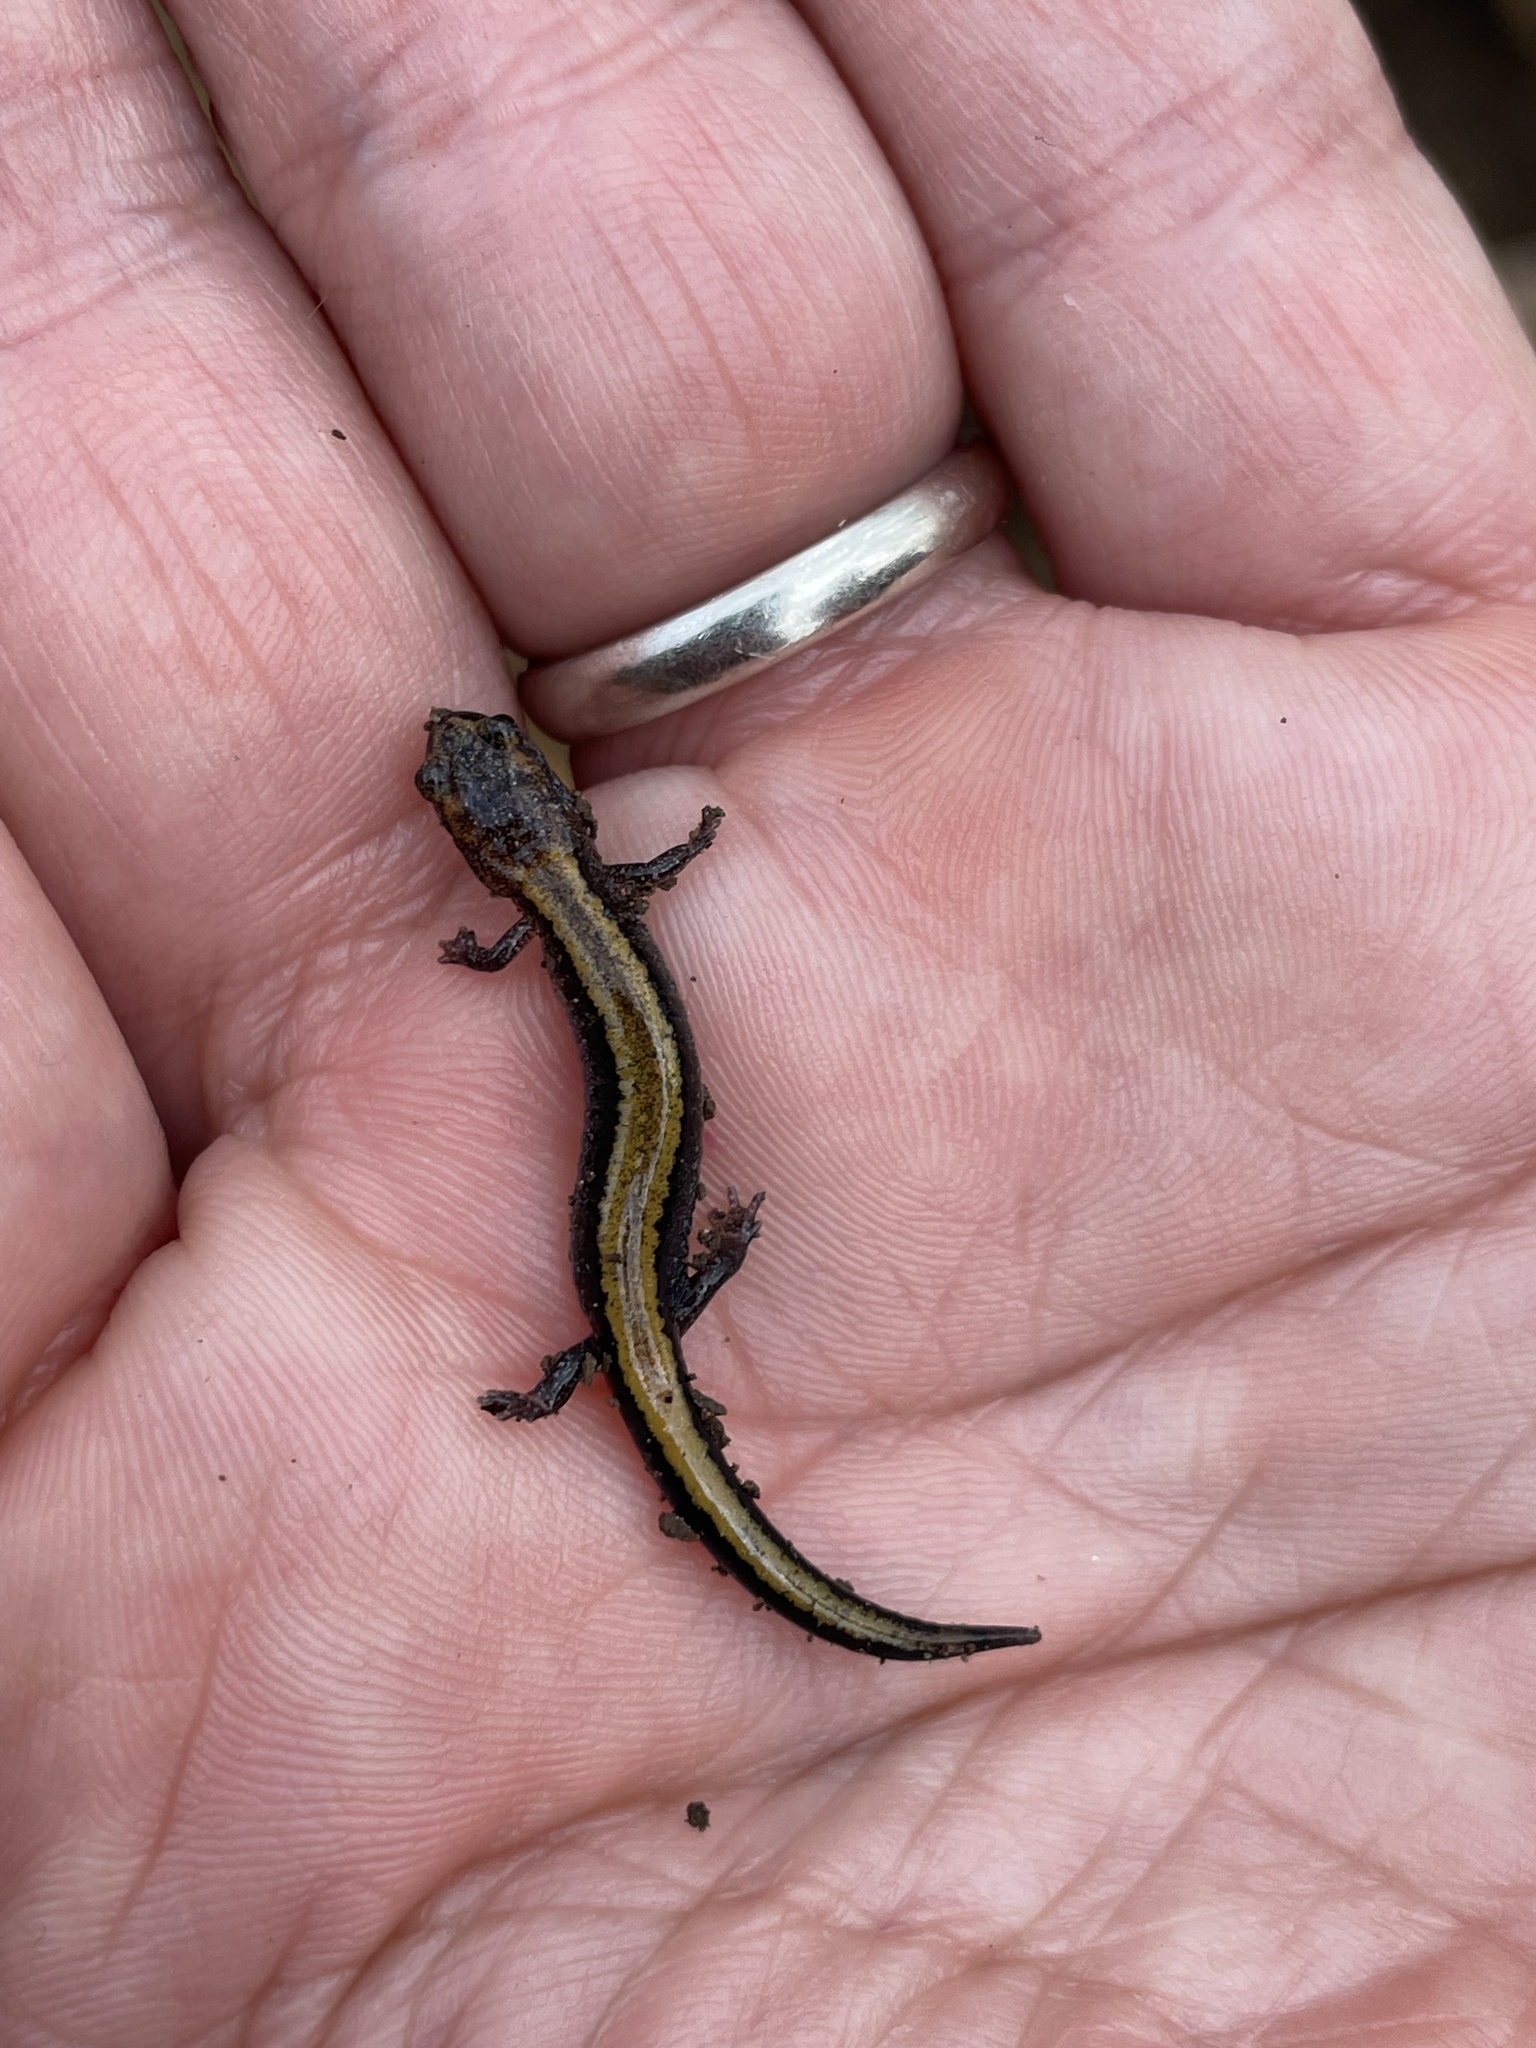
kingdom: Animalia
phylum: Chordata
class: Amphibia
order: Caudata
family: Plethodontidae
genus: Plethodon
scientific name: Plethodon cinereus
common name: Redback salamander
